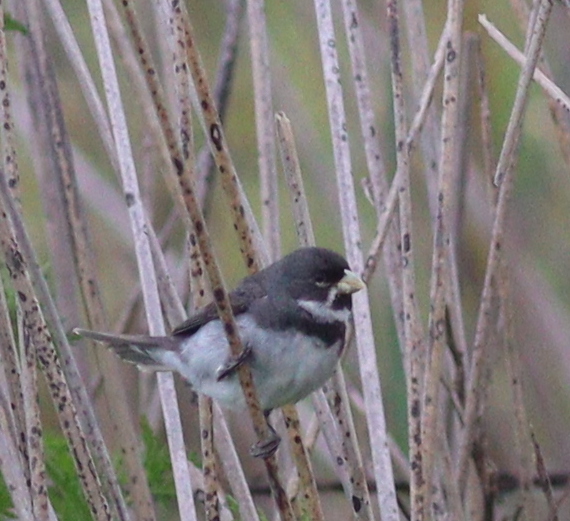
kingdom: Animalia
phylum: Chordata
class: Aves
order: Passeriformes
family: Thraupidae
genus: Sporophila
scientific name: Sporophila caerulescens
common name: Double-collared seedeater
